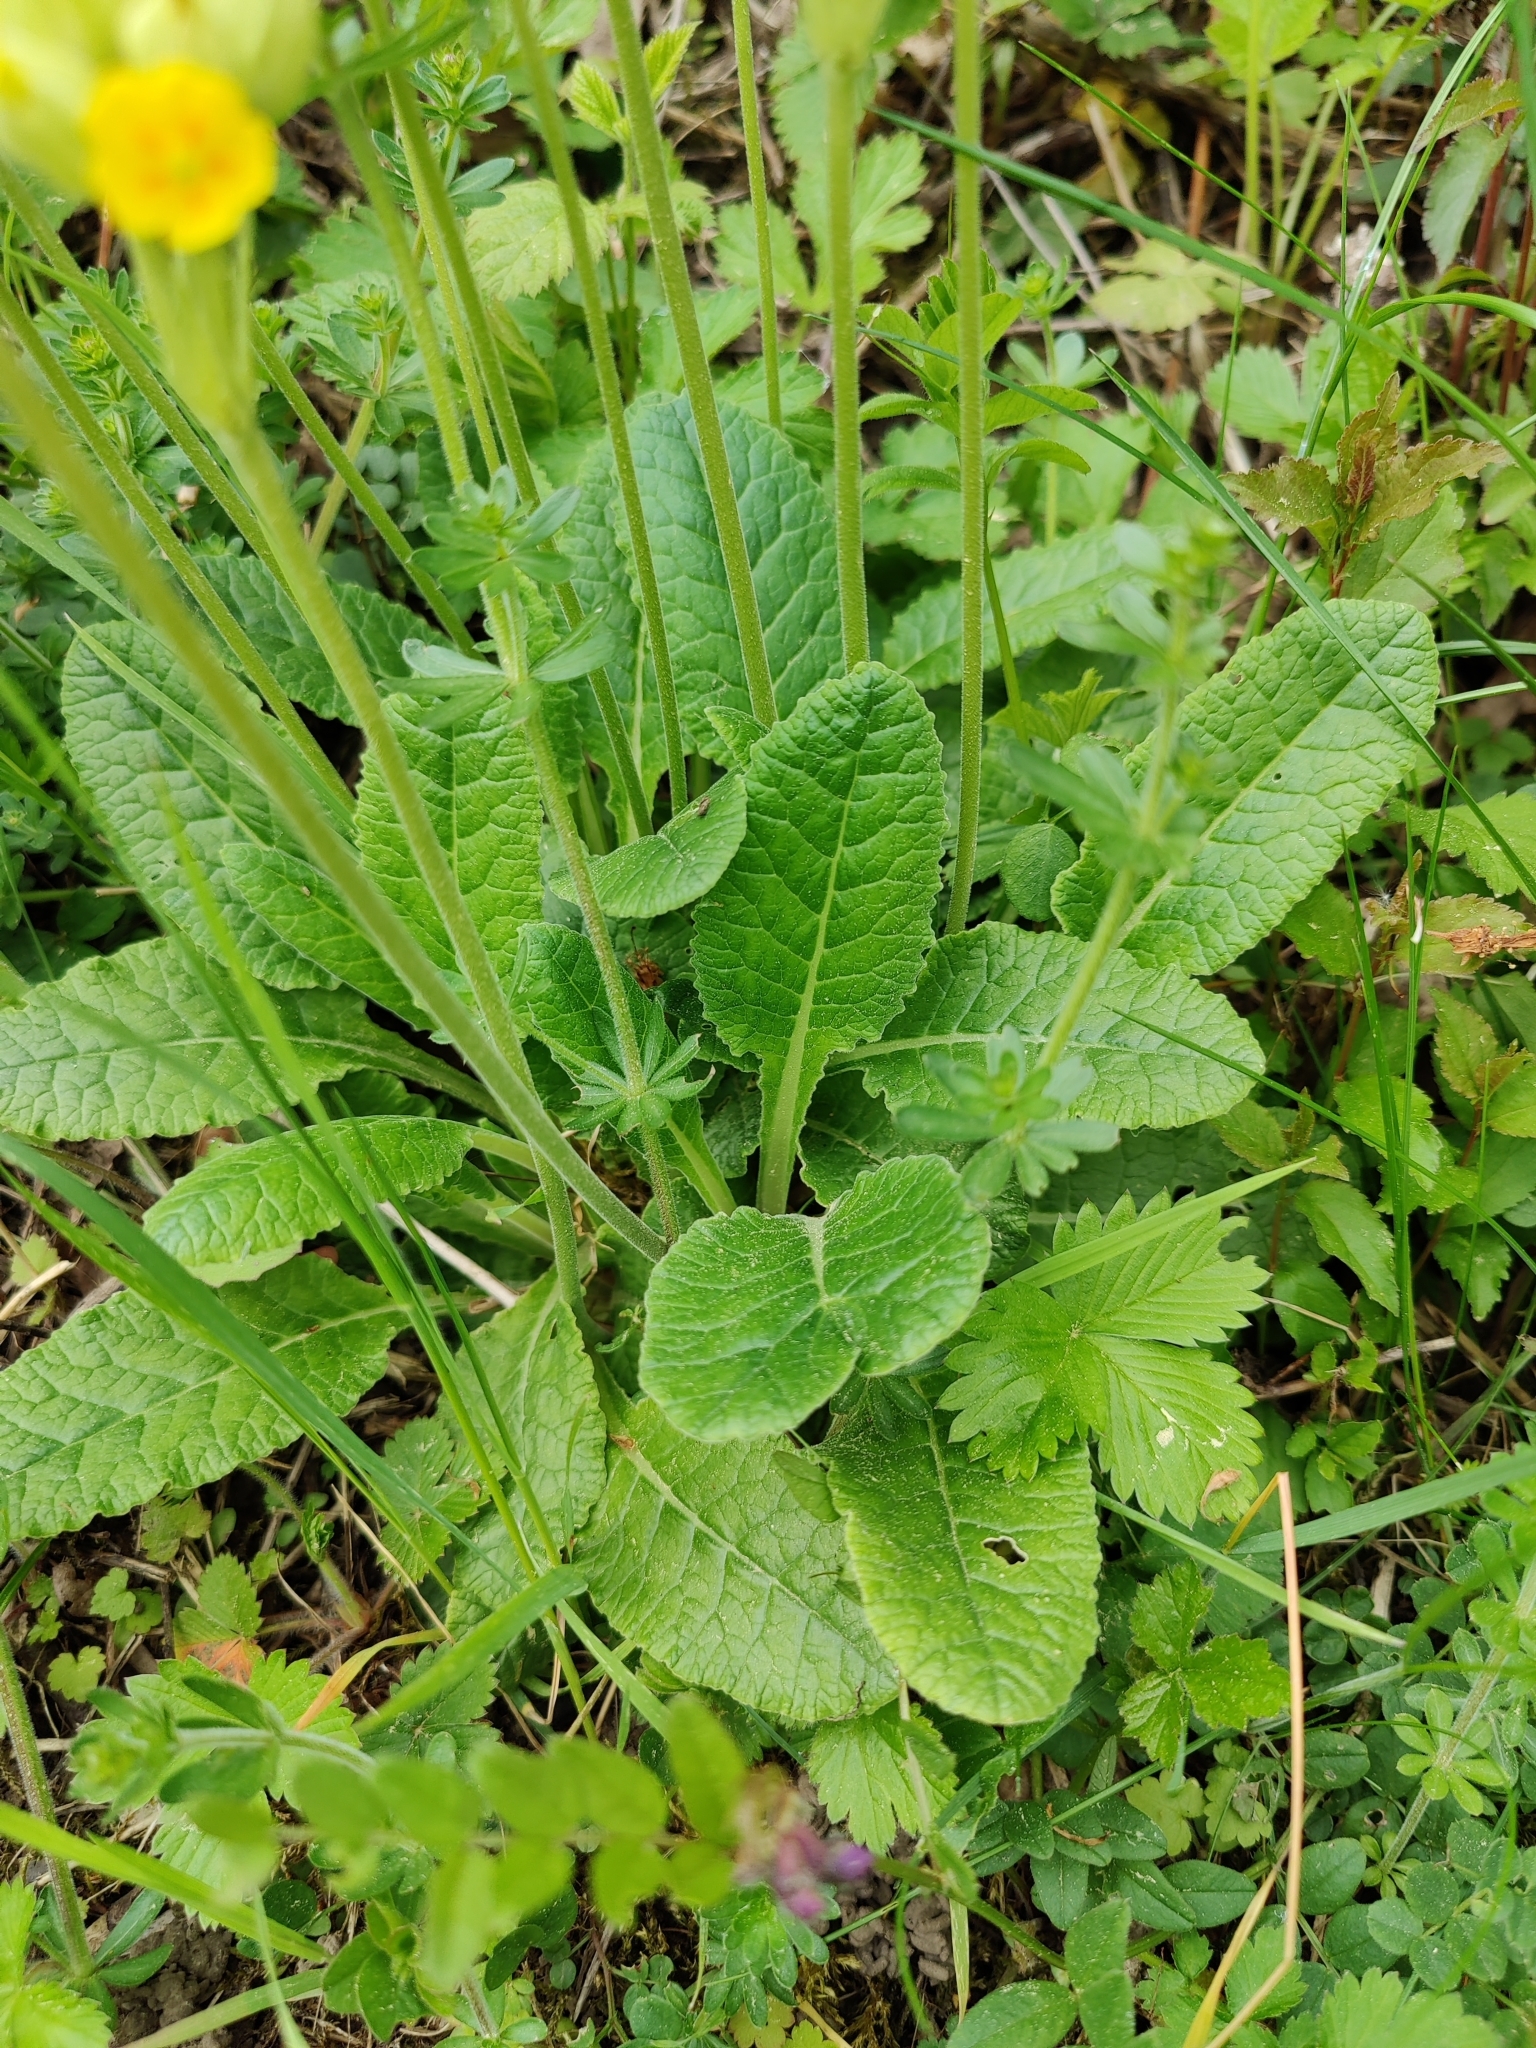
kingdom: Plantae
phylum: Tracheophyta
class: Magnoliopsida
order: Ericales
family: Primulaceae
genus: Primula
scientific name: Primula veris
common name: Cowslip
